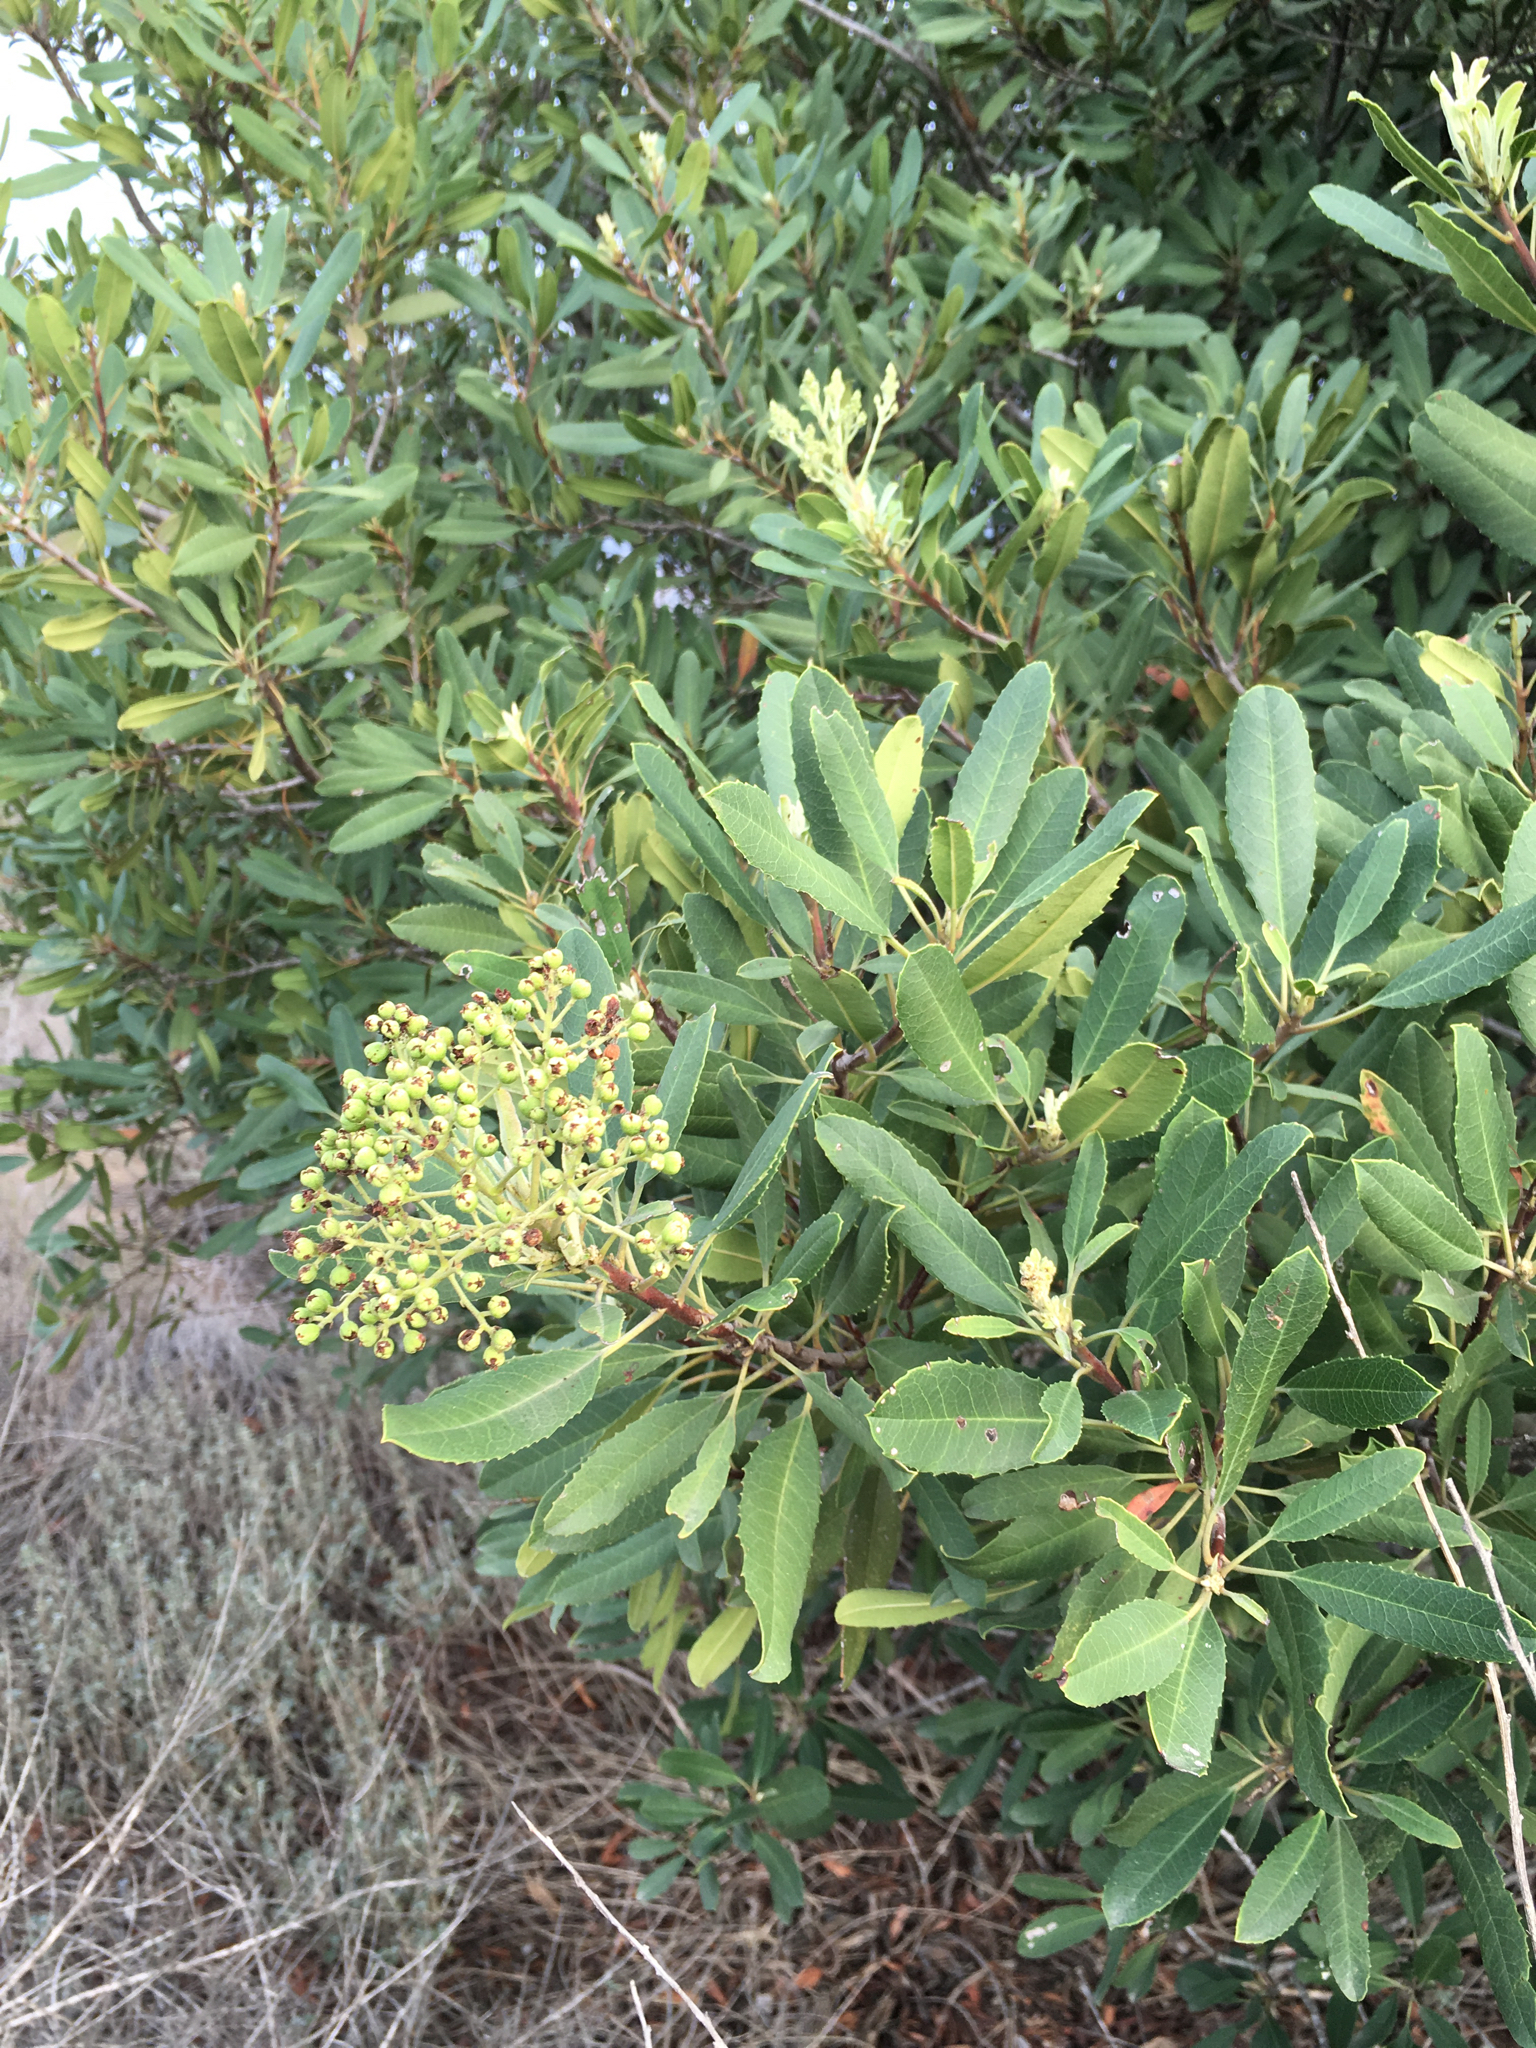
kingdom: Plantae
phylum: Tracheophyta
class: Magnoliopsida
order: Rosales
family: Rosaceae
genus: Heteromeles
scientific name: Heteromeles arbutifolia
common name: California-holly
